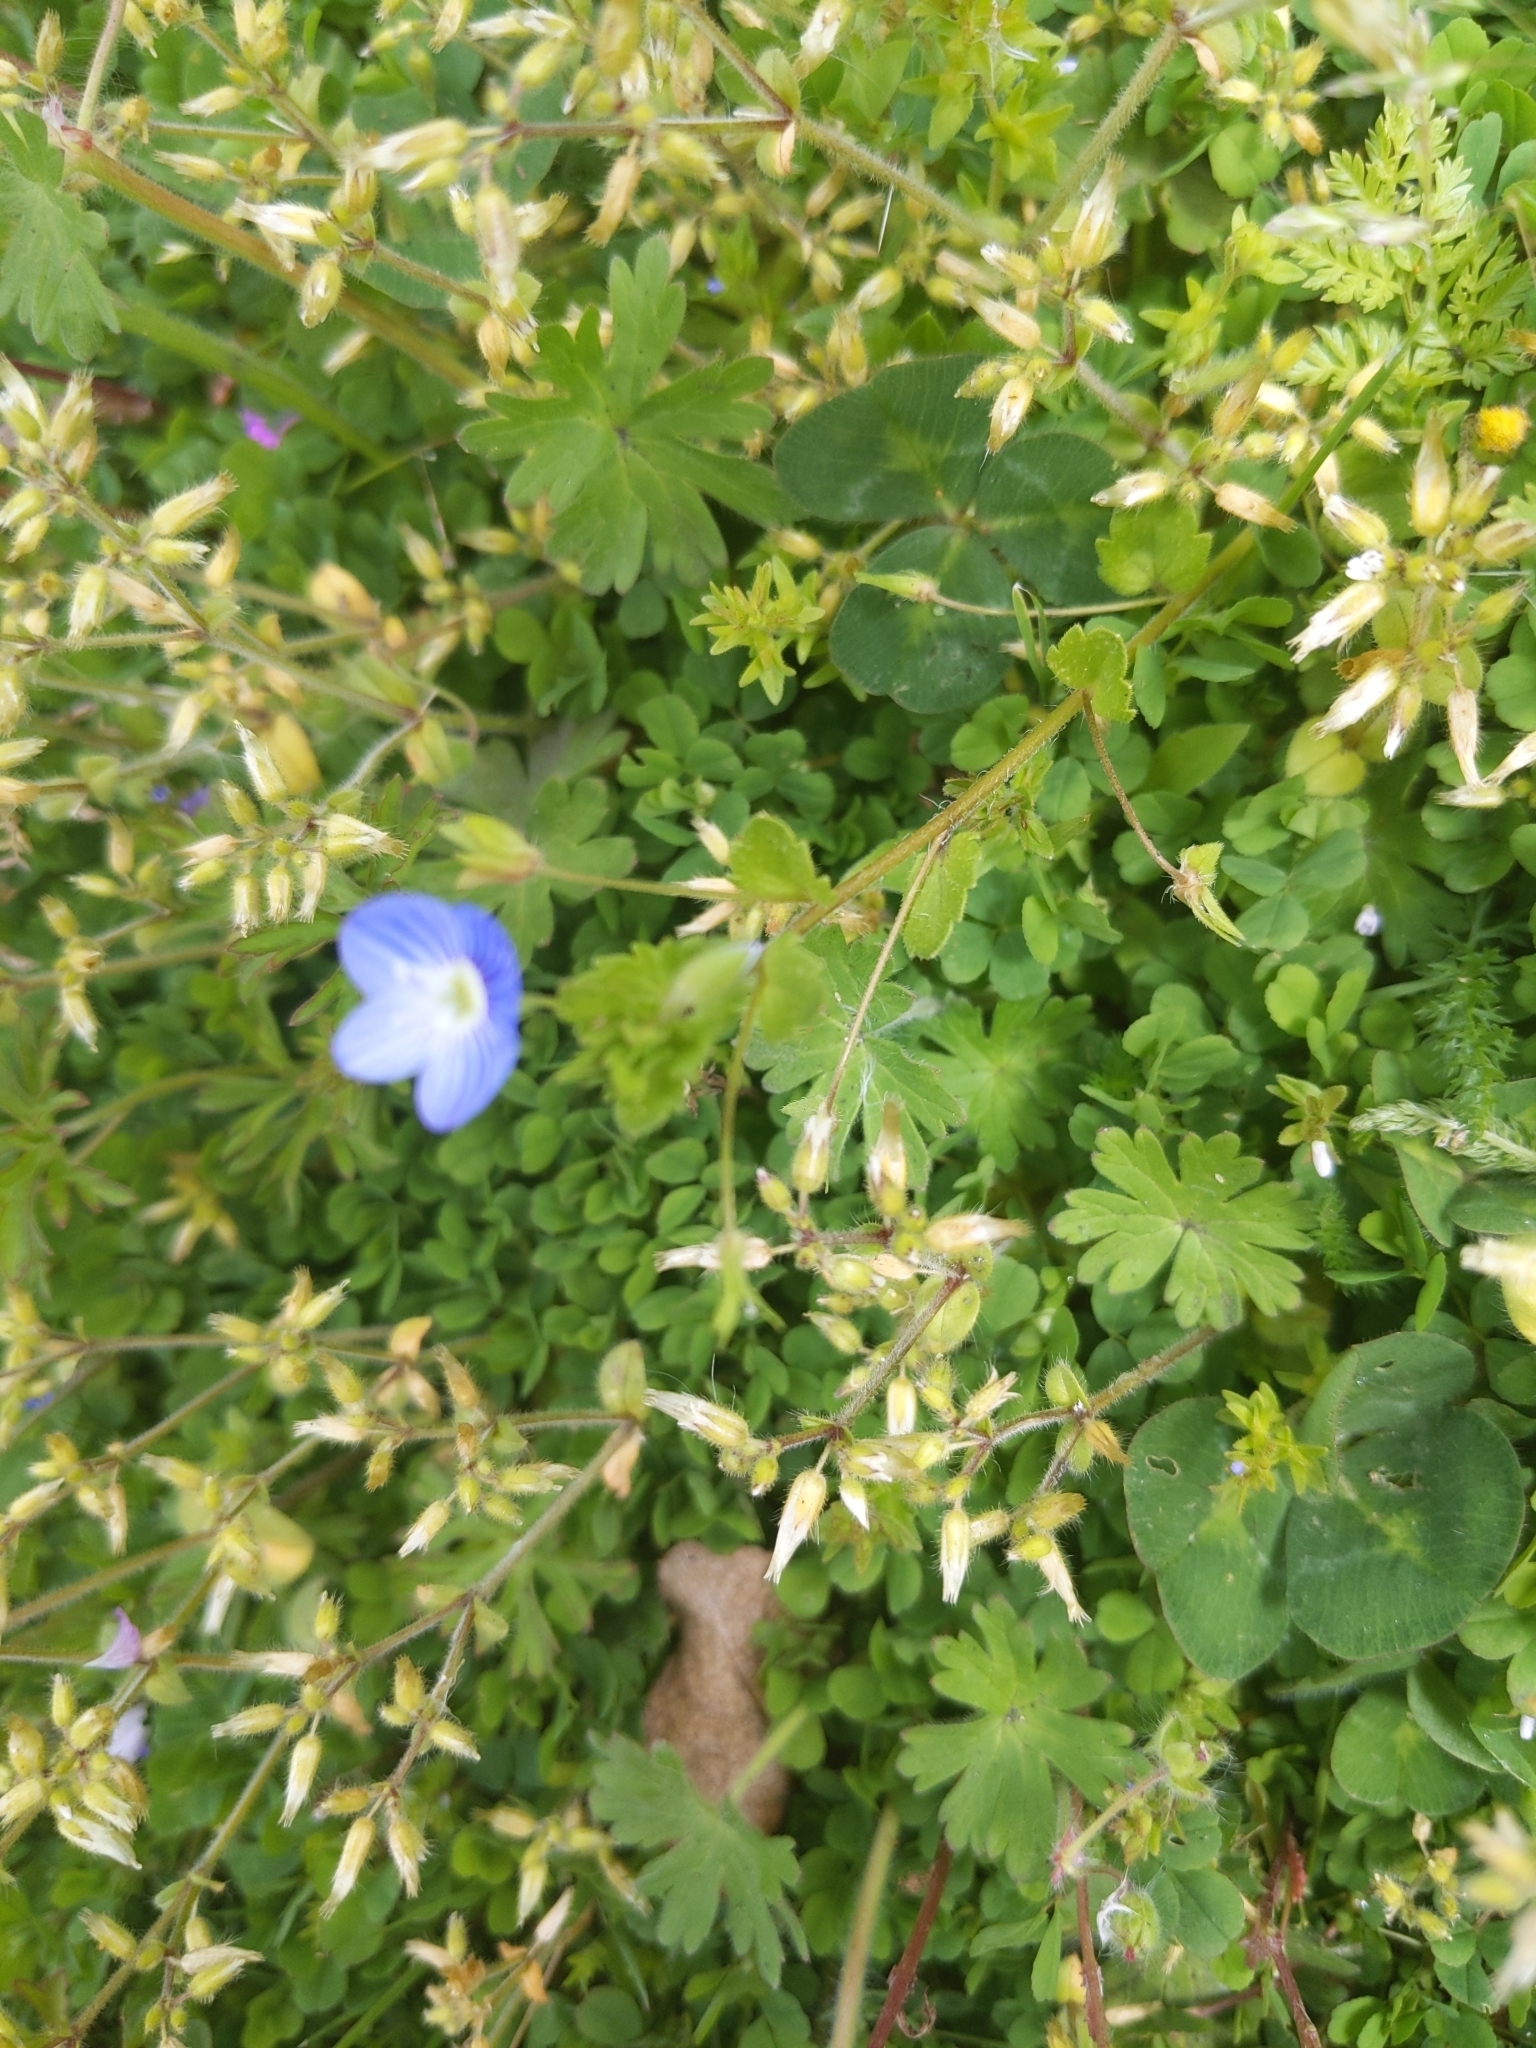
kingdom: Plantae
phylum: Tracheophyta
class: Magnoliopsida
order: Lamiales
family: Plantaginaceae
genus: Veronica
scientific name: Veronica persica
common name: Common field-speedwell
